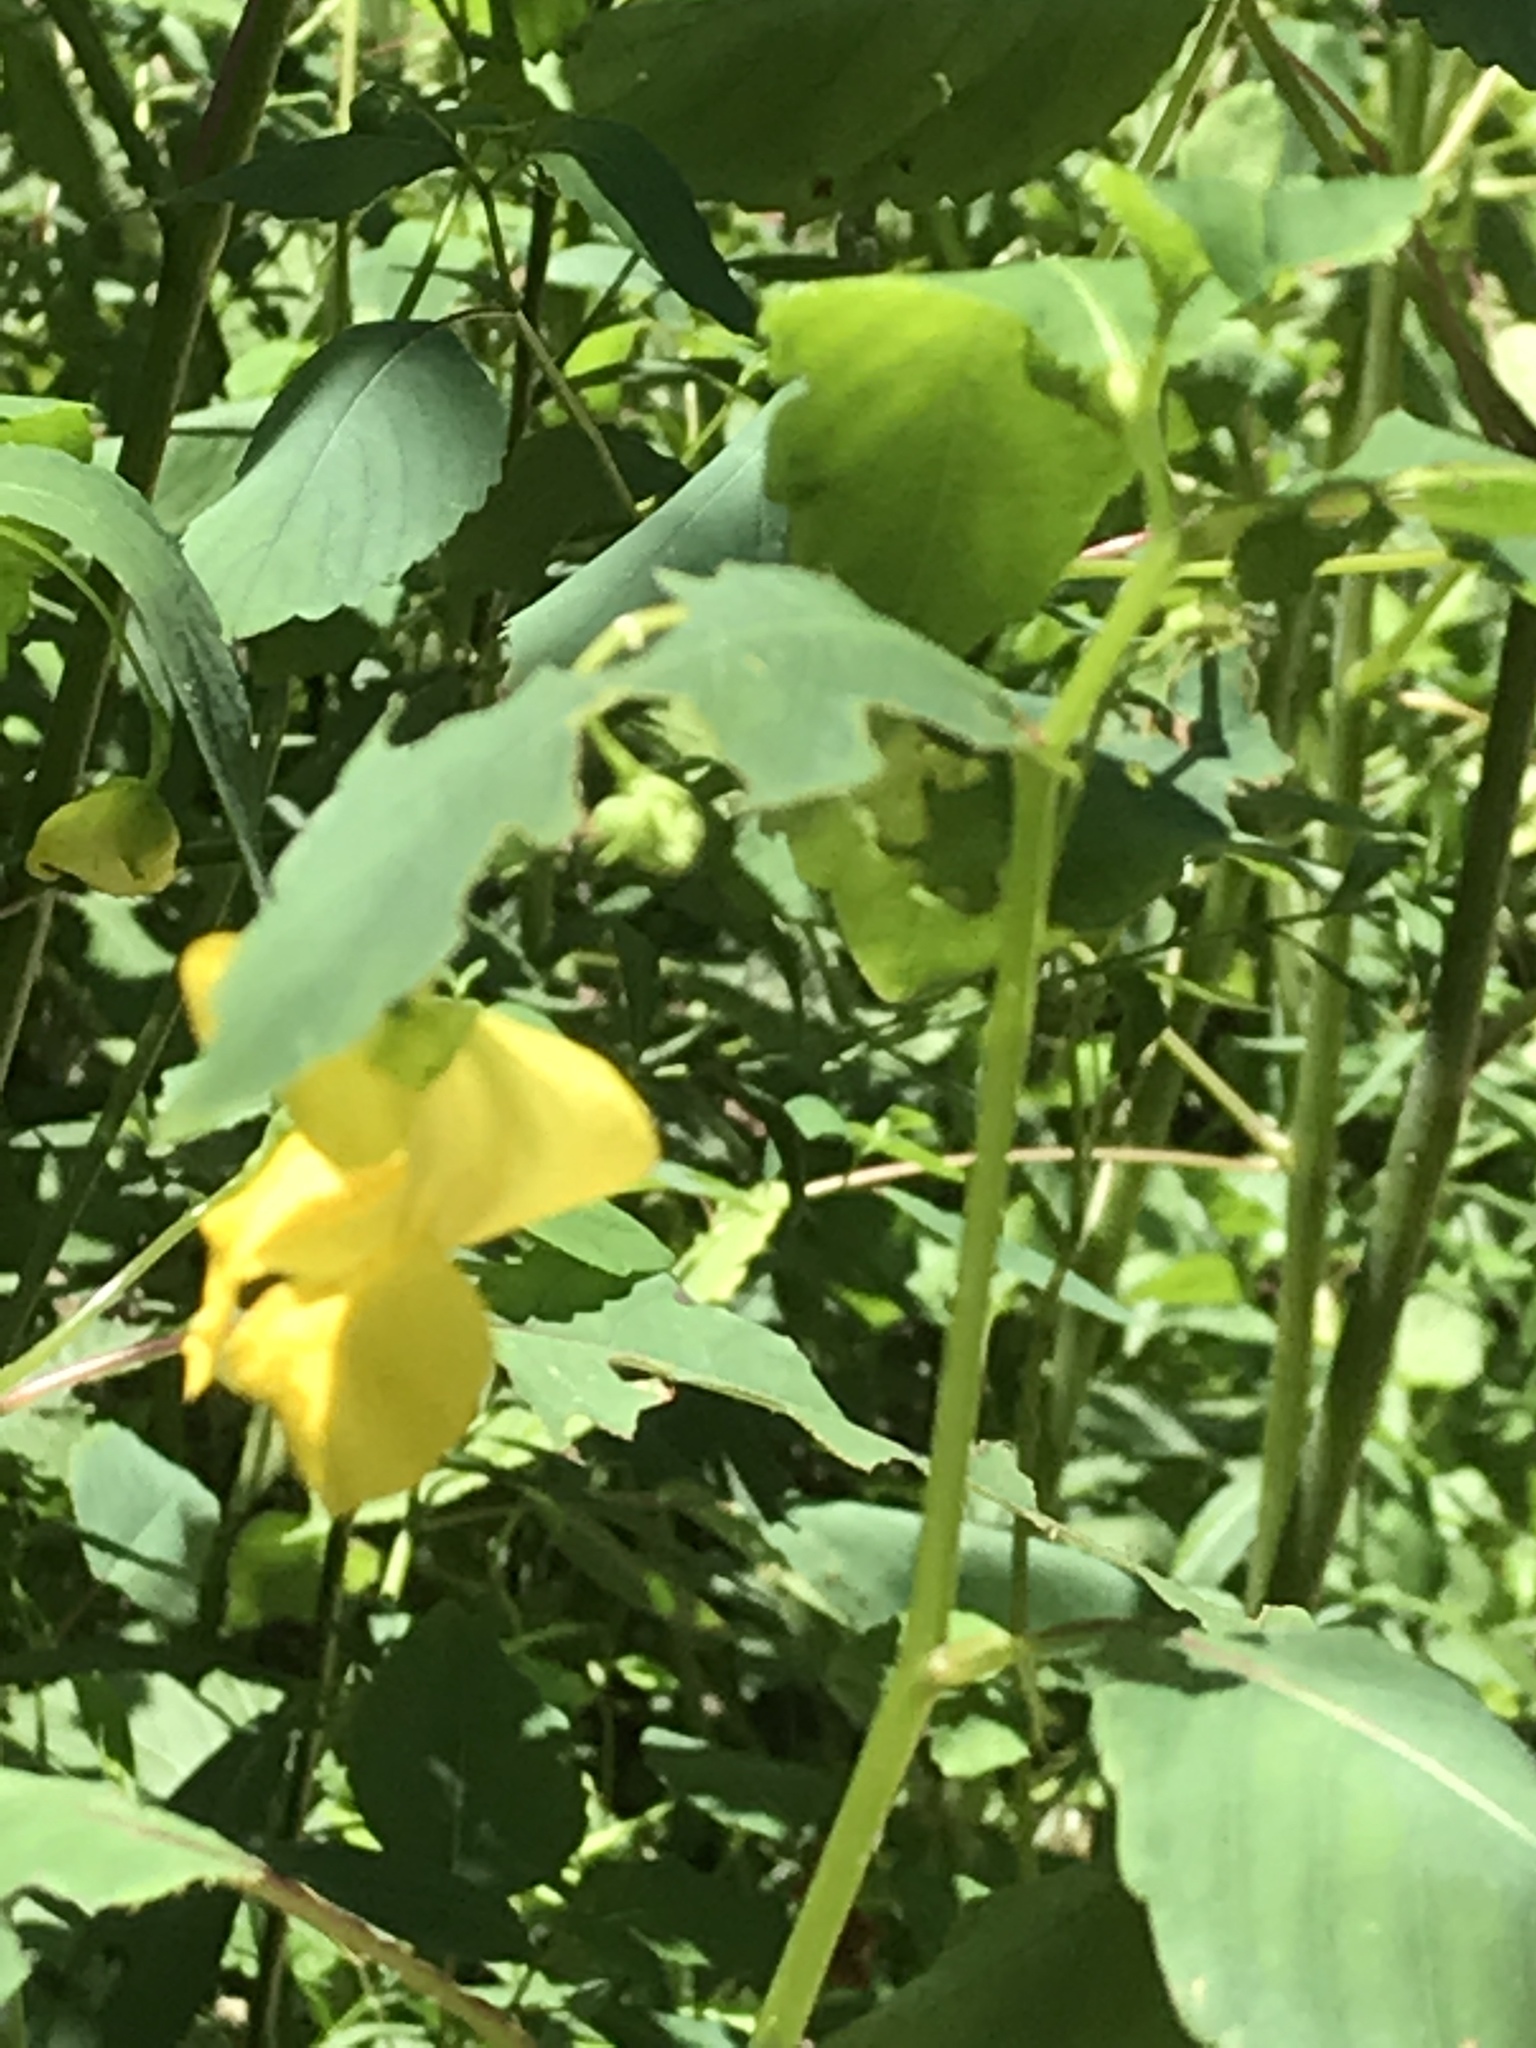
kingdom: Plantae
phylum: Tracheophyta
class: Magnoliopsida
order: Ericales
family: Balsaminaceae
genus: Impatiens
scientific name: Impatiens pallida
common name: Pale snapweed
